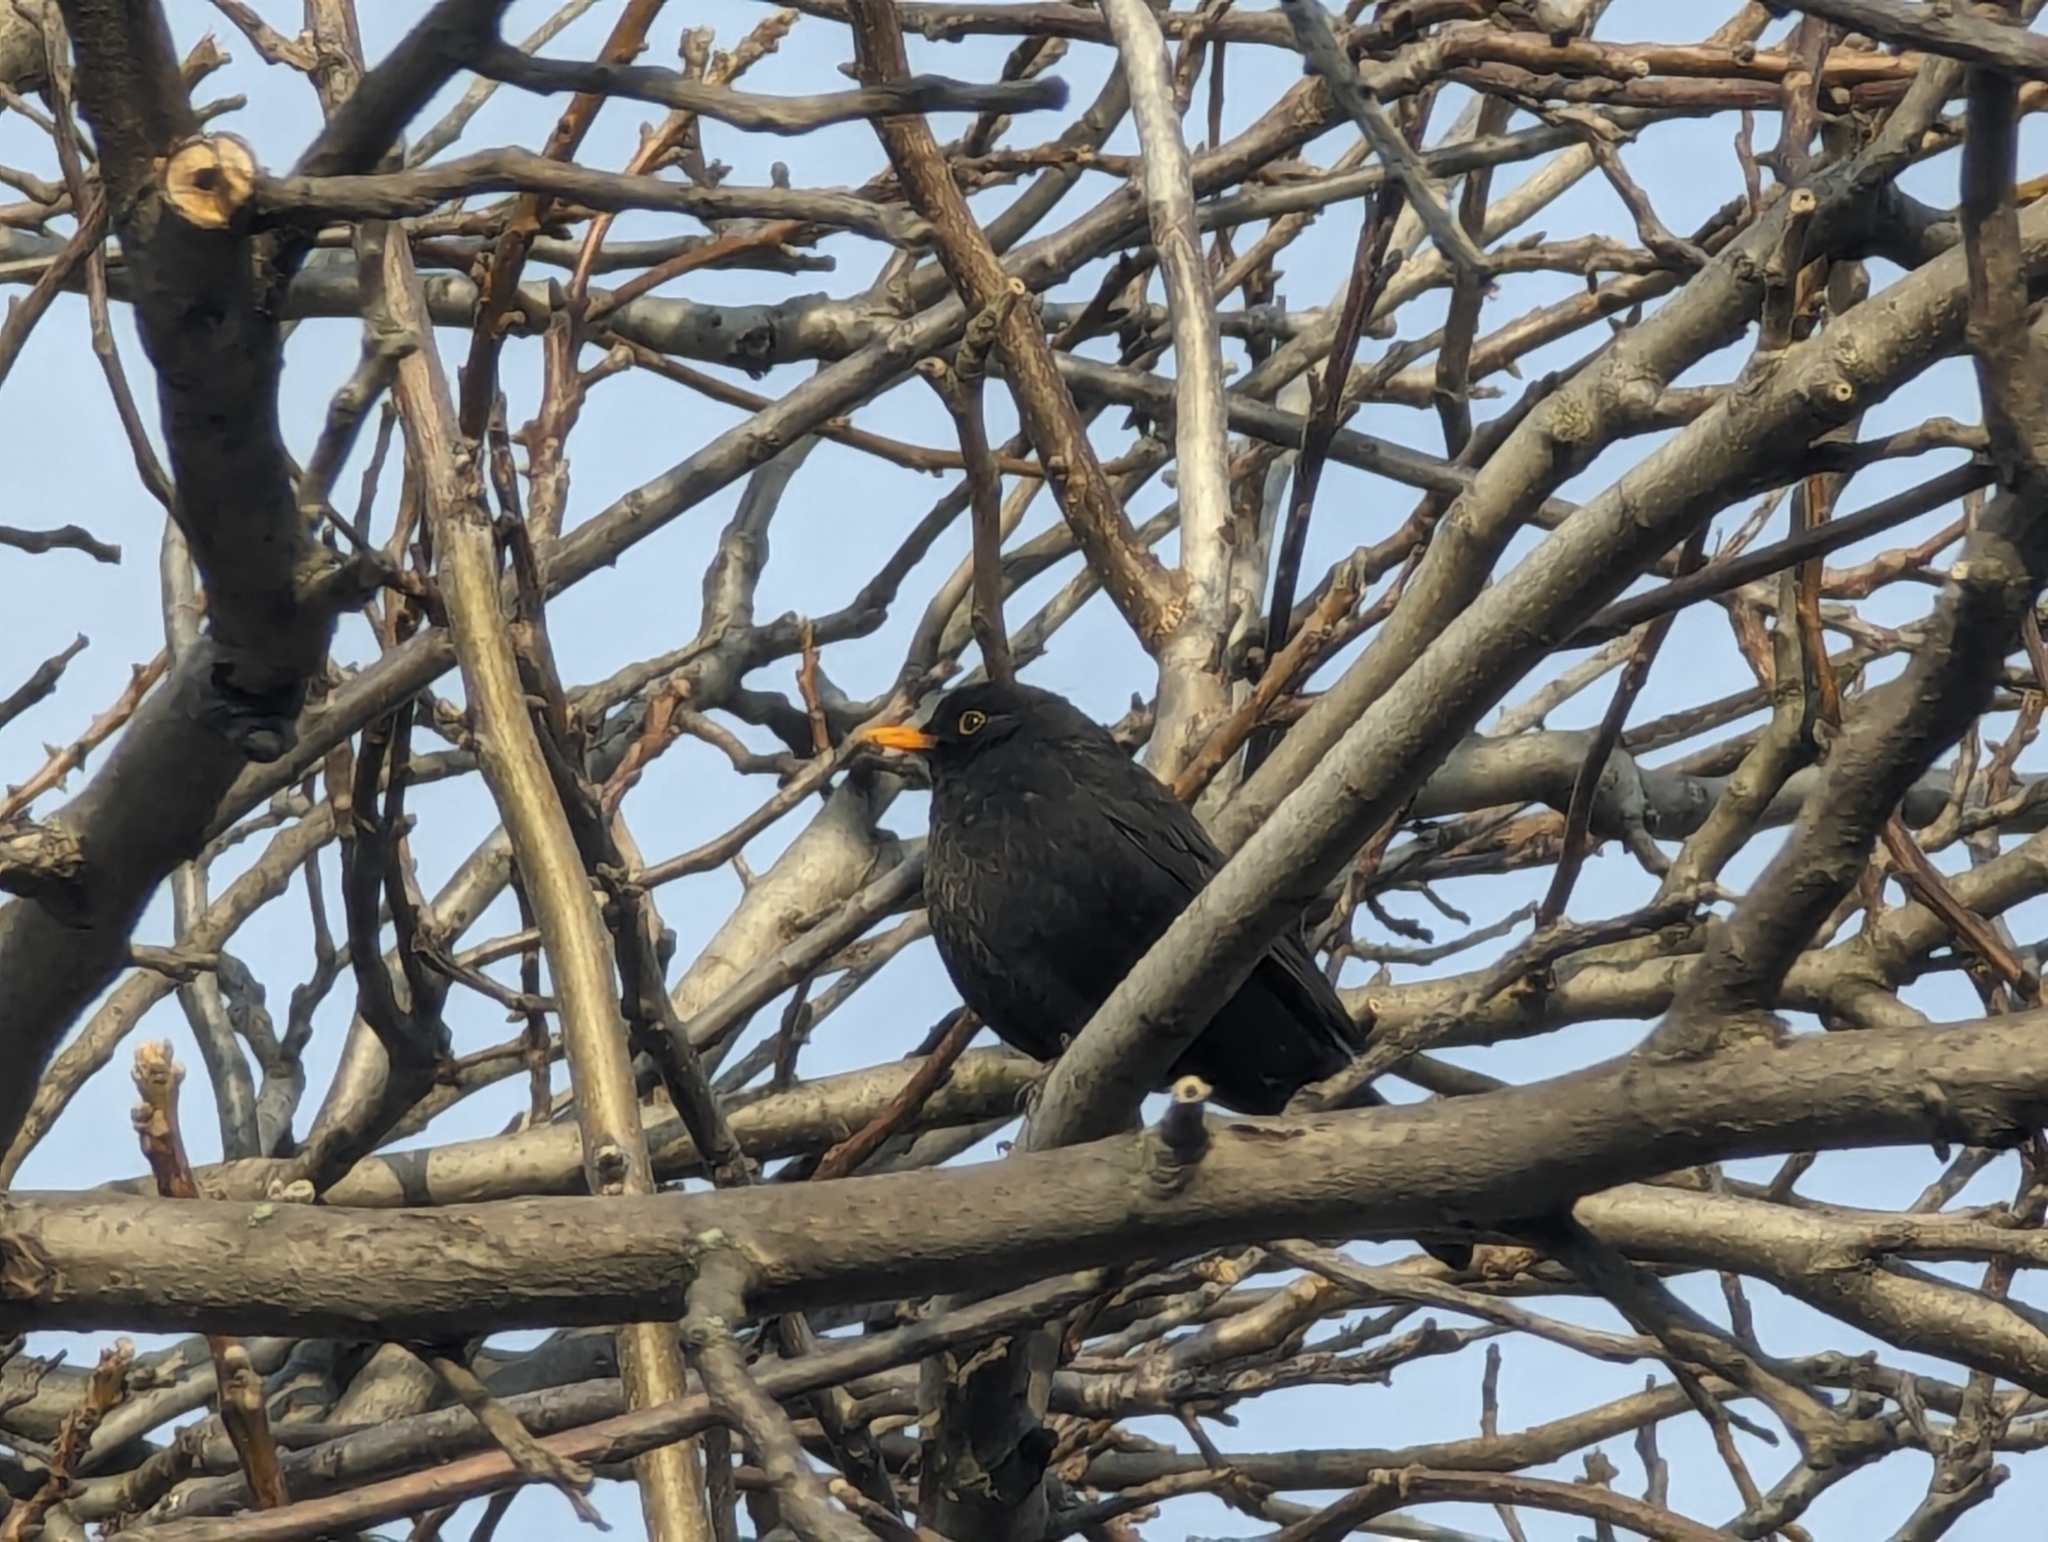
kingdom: Animalia
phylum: Chordata
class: Aves
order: Passeriformes
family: Turdidae
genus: Turdus
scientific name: Turdus merula
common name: Common blackbird
